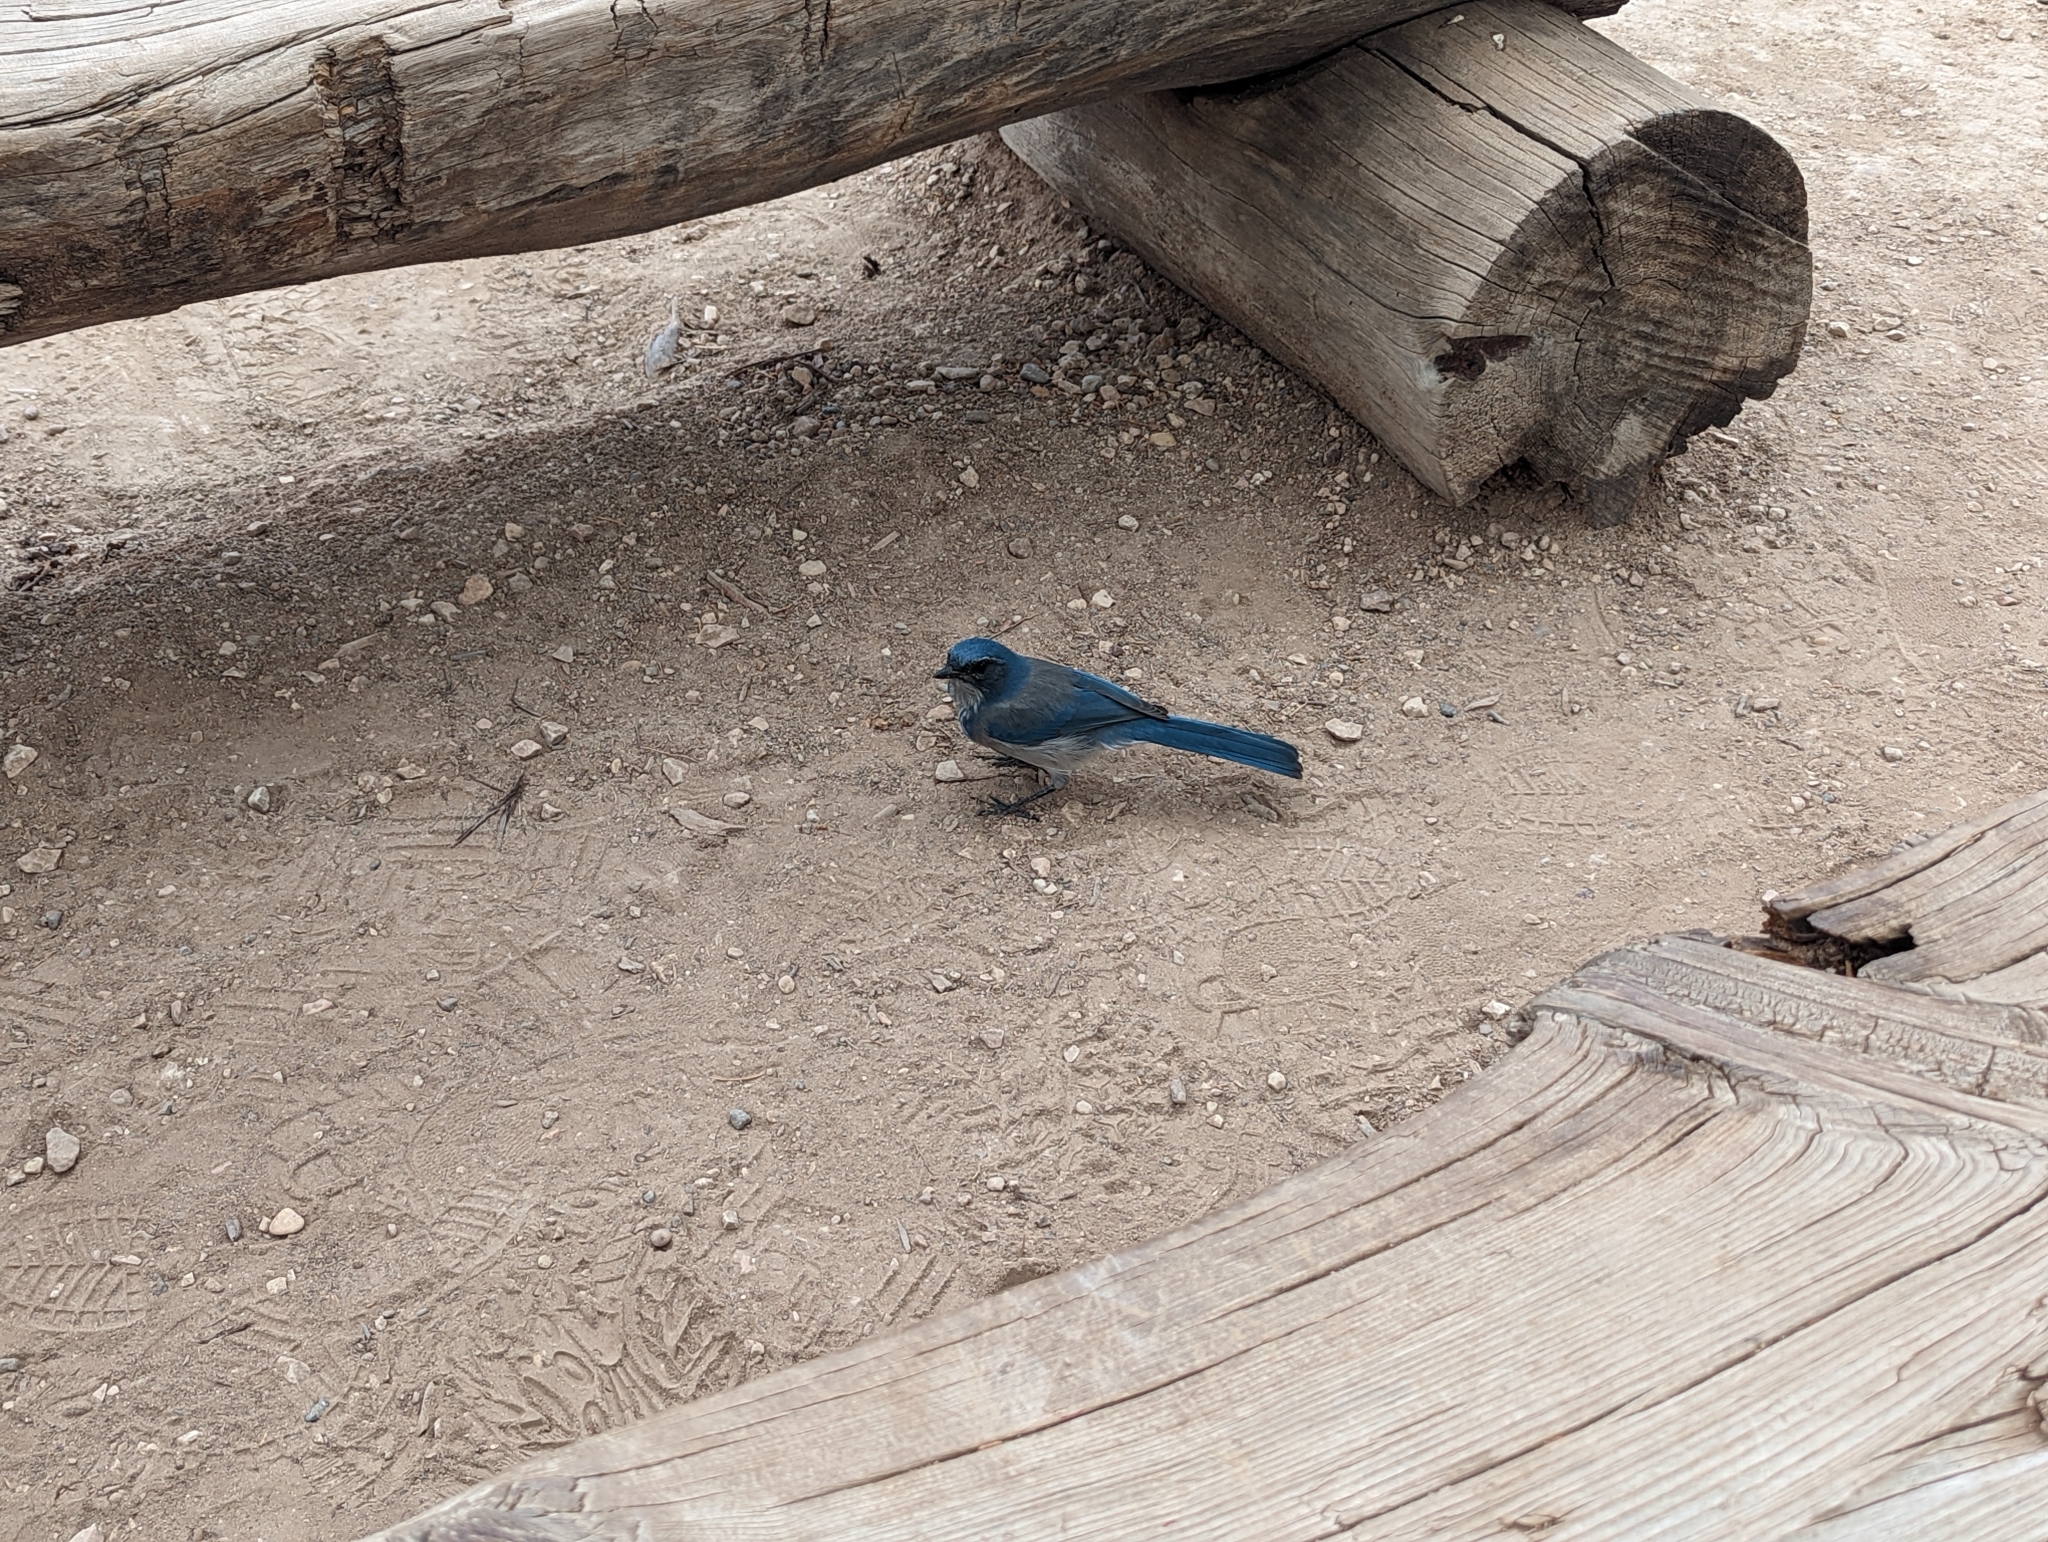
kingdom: Animalia
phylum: Chordata
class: Aves
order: Passeriformes
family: Corvidae
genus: Aphelocoma
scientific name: Aphelocoma woodhouseii
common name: Woodhouse's scrub-jay
